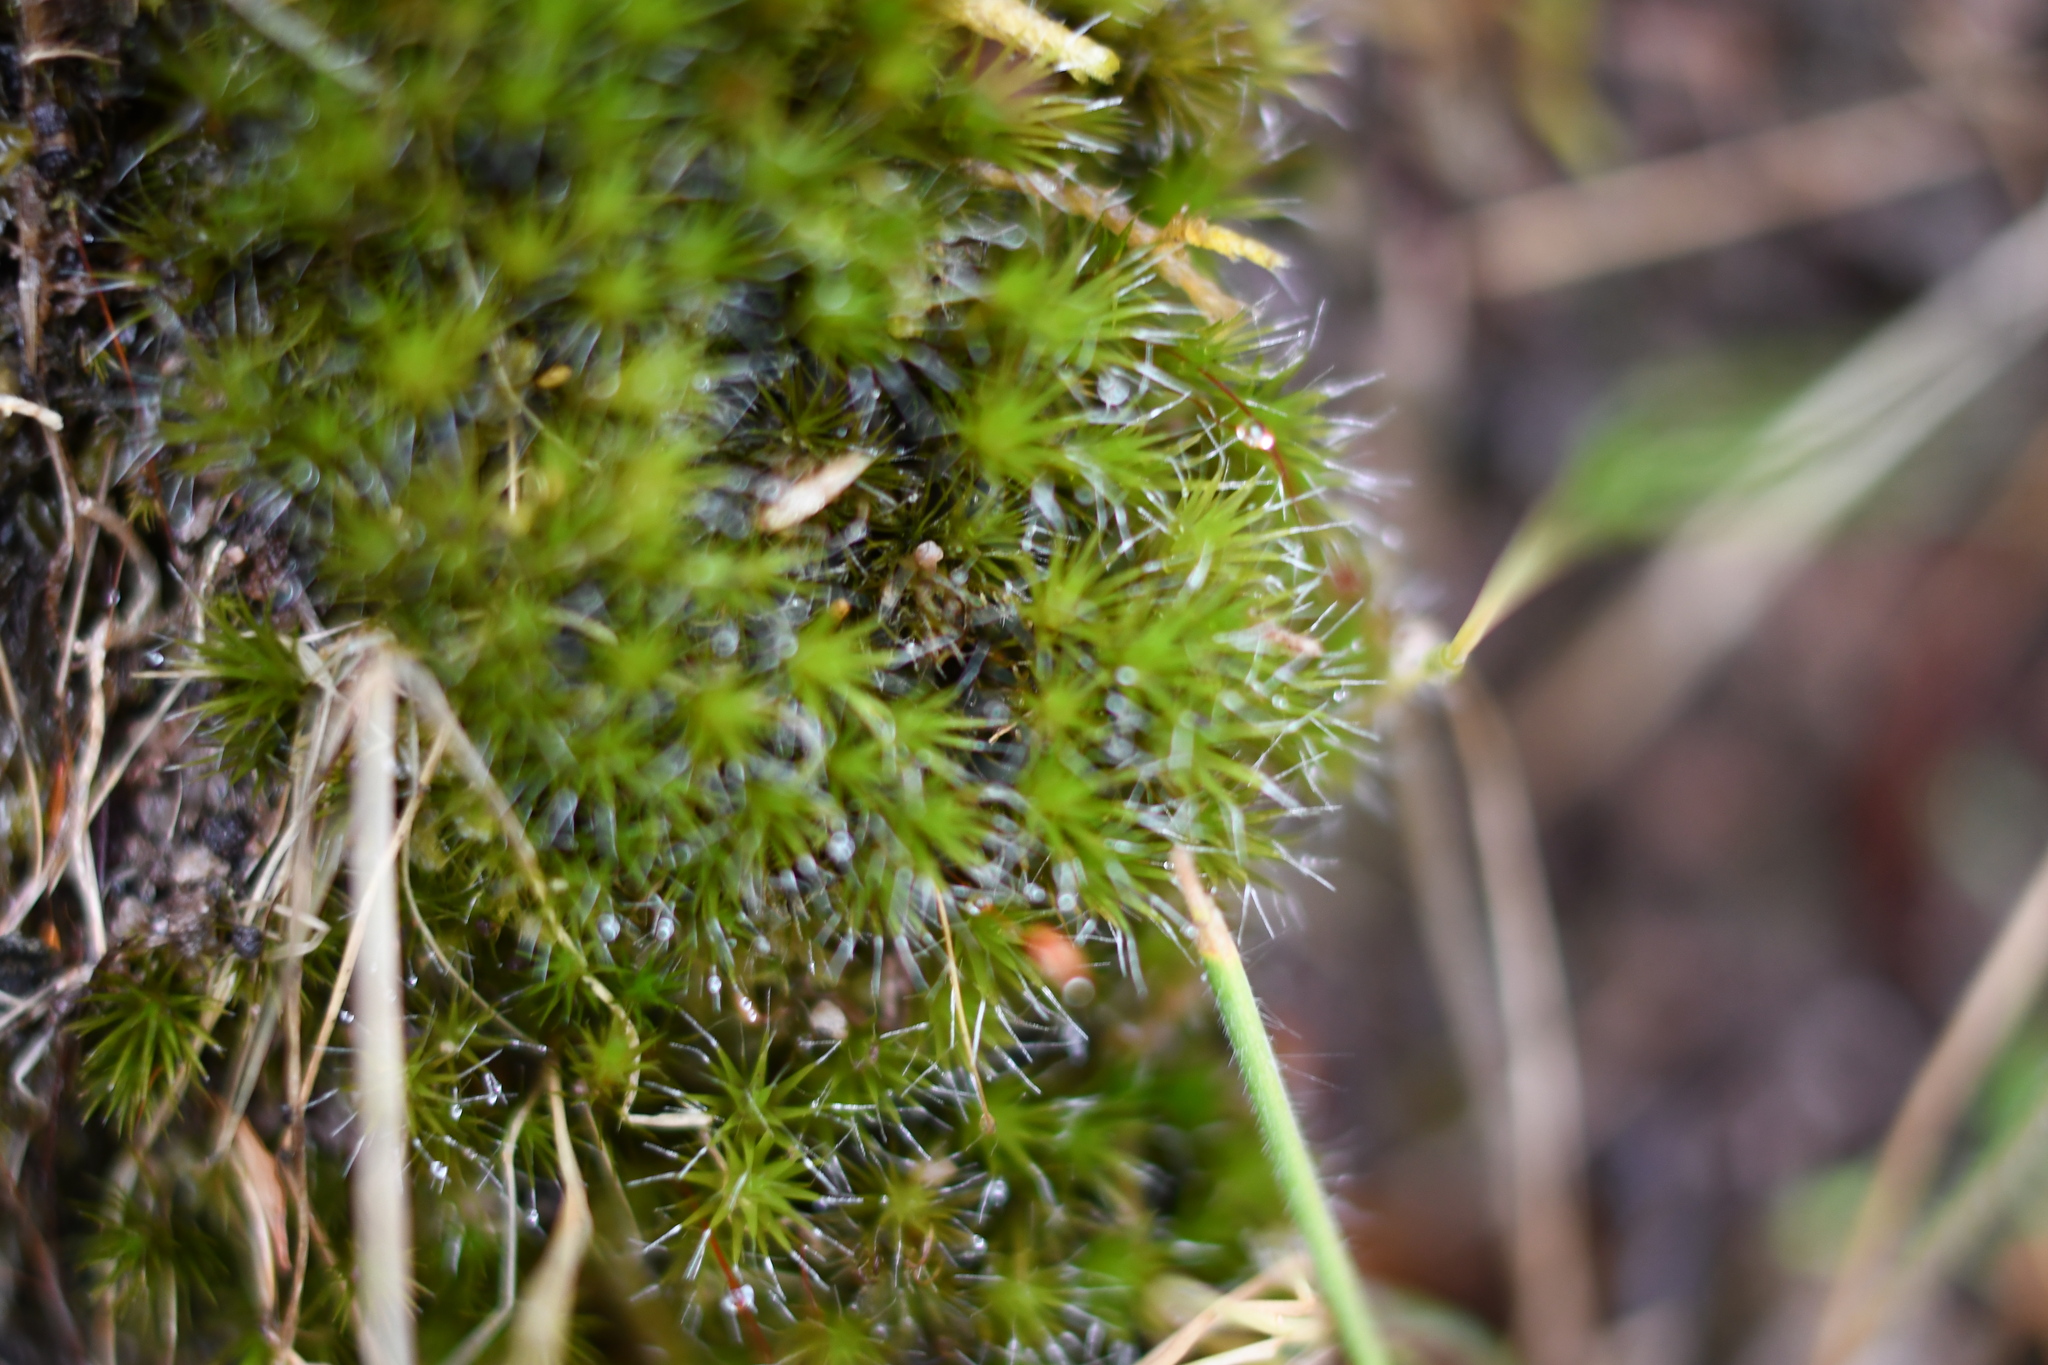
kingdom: Plantae
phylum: Bryophyta
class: Bryopsida
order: Dicranales
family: Leucobryaceae
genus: Campylopus
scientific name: Campylopus introflexus
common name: Heath star moss
